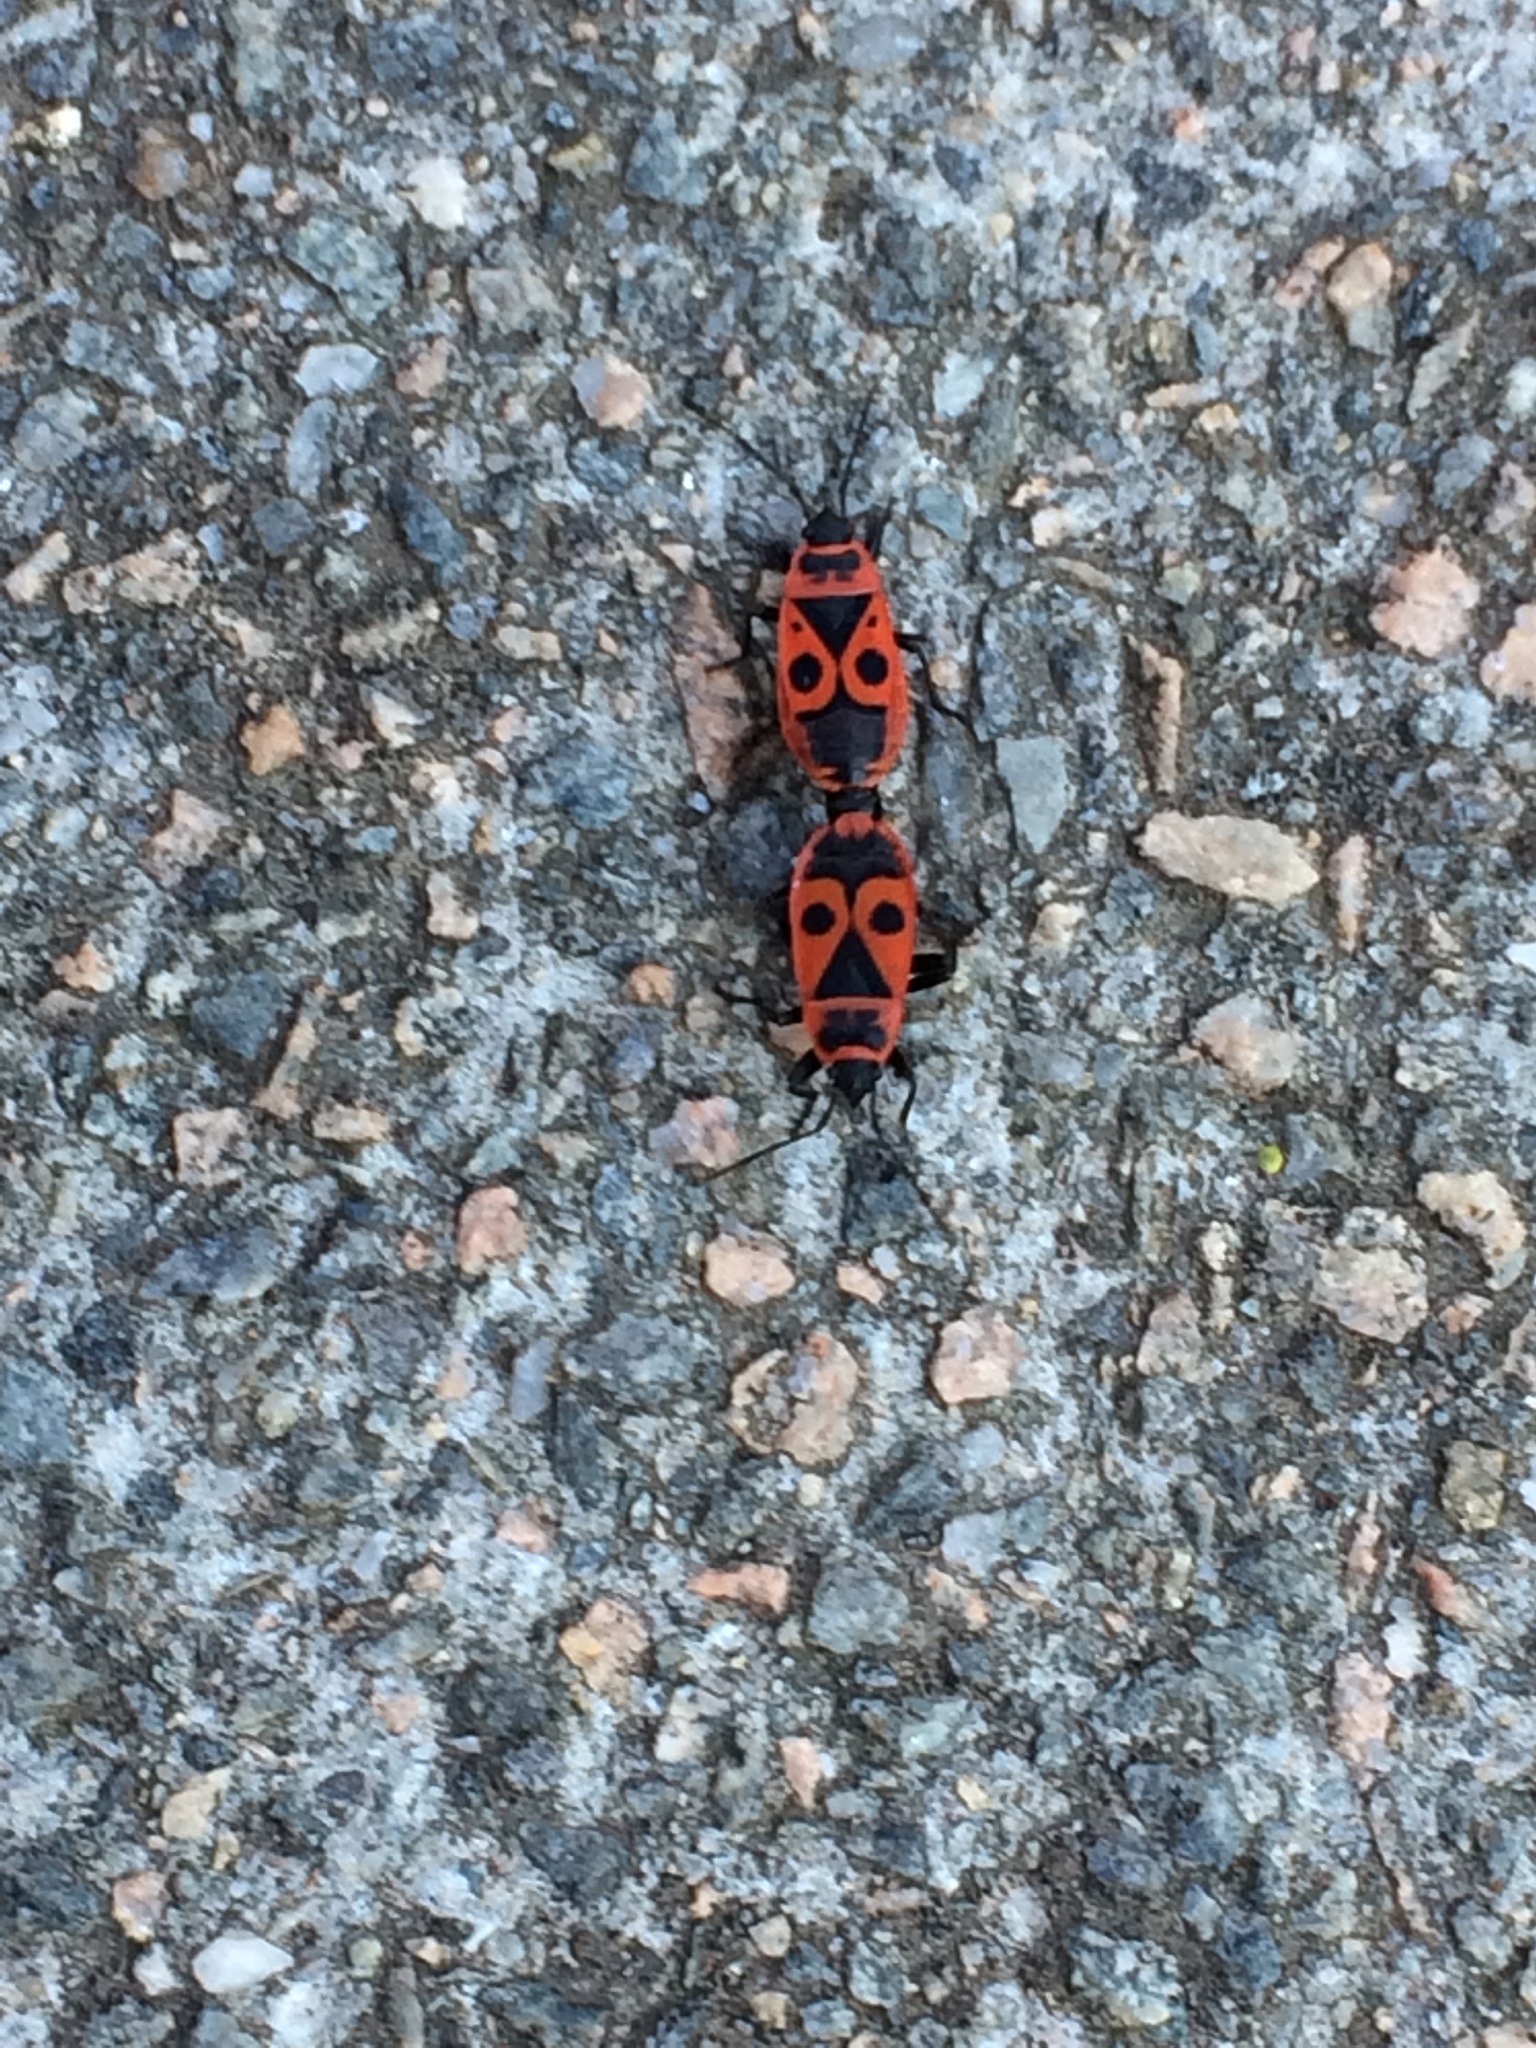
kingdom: Animalia
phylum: Arthropoda
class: Insecta
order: Hemiptera
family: Pyrrhocoridae
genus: Pyrrhocoris
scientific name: Pyrrhocoris apterus
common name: Firebug
